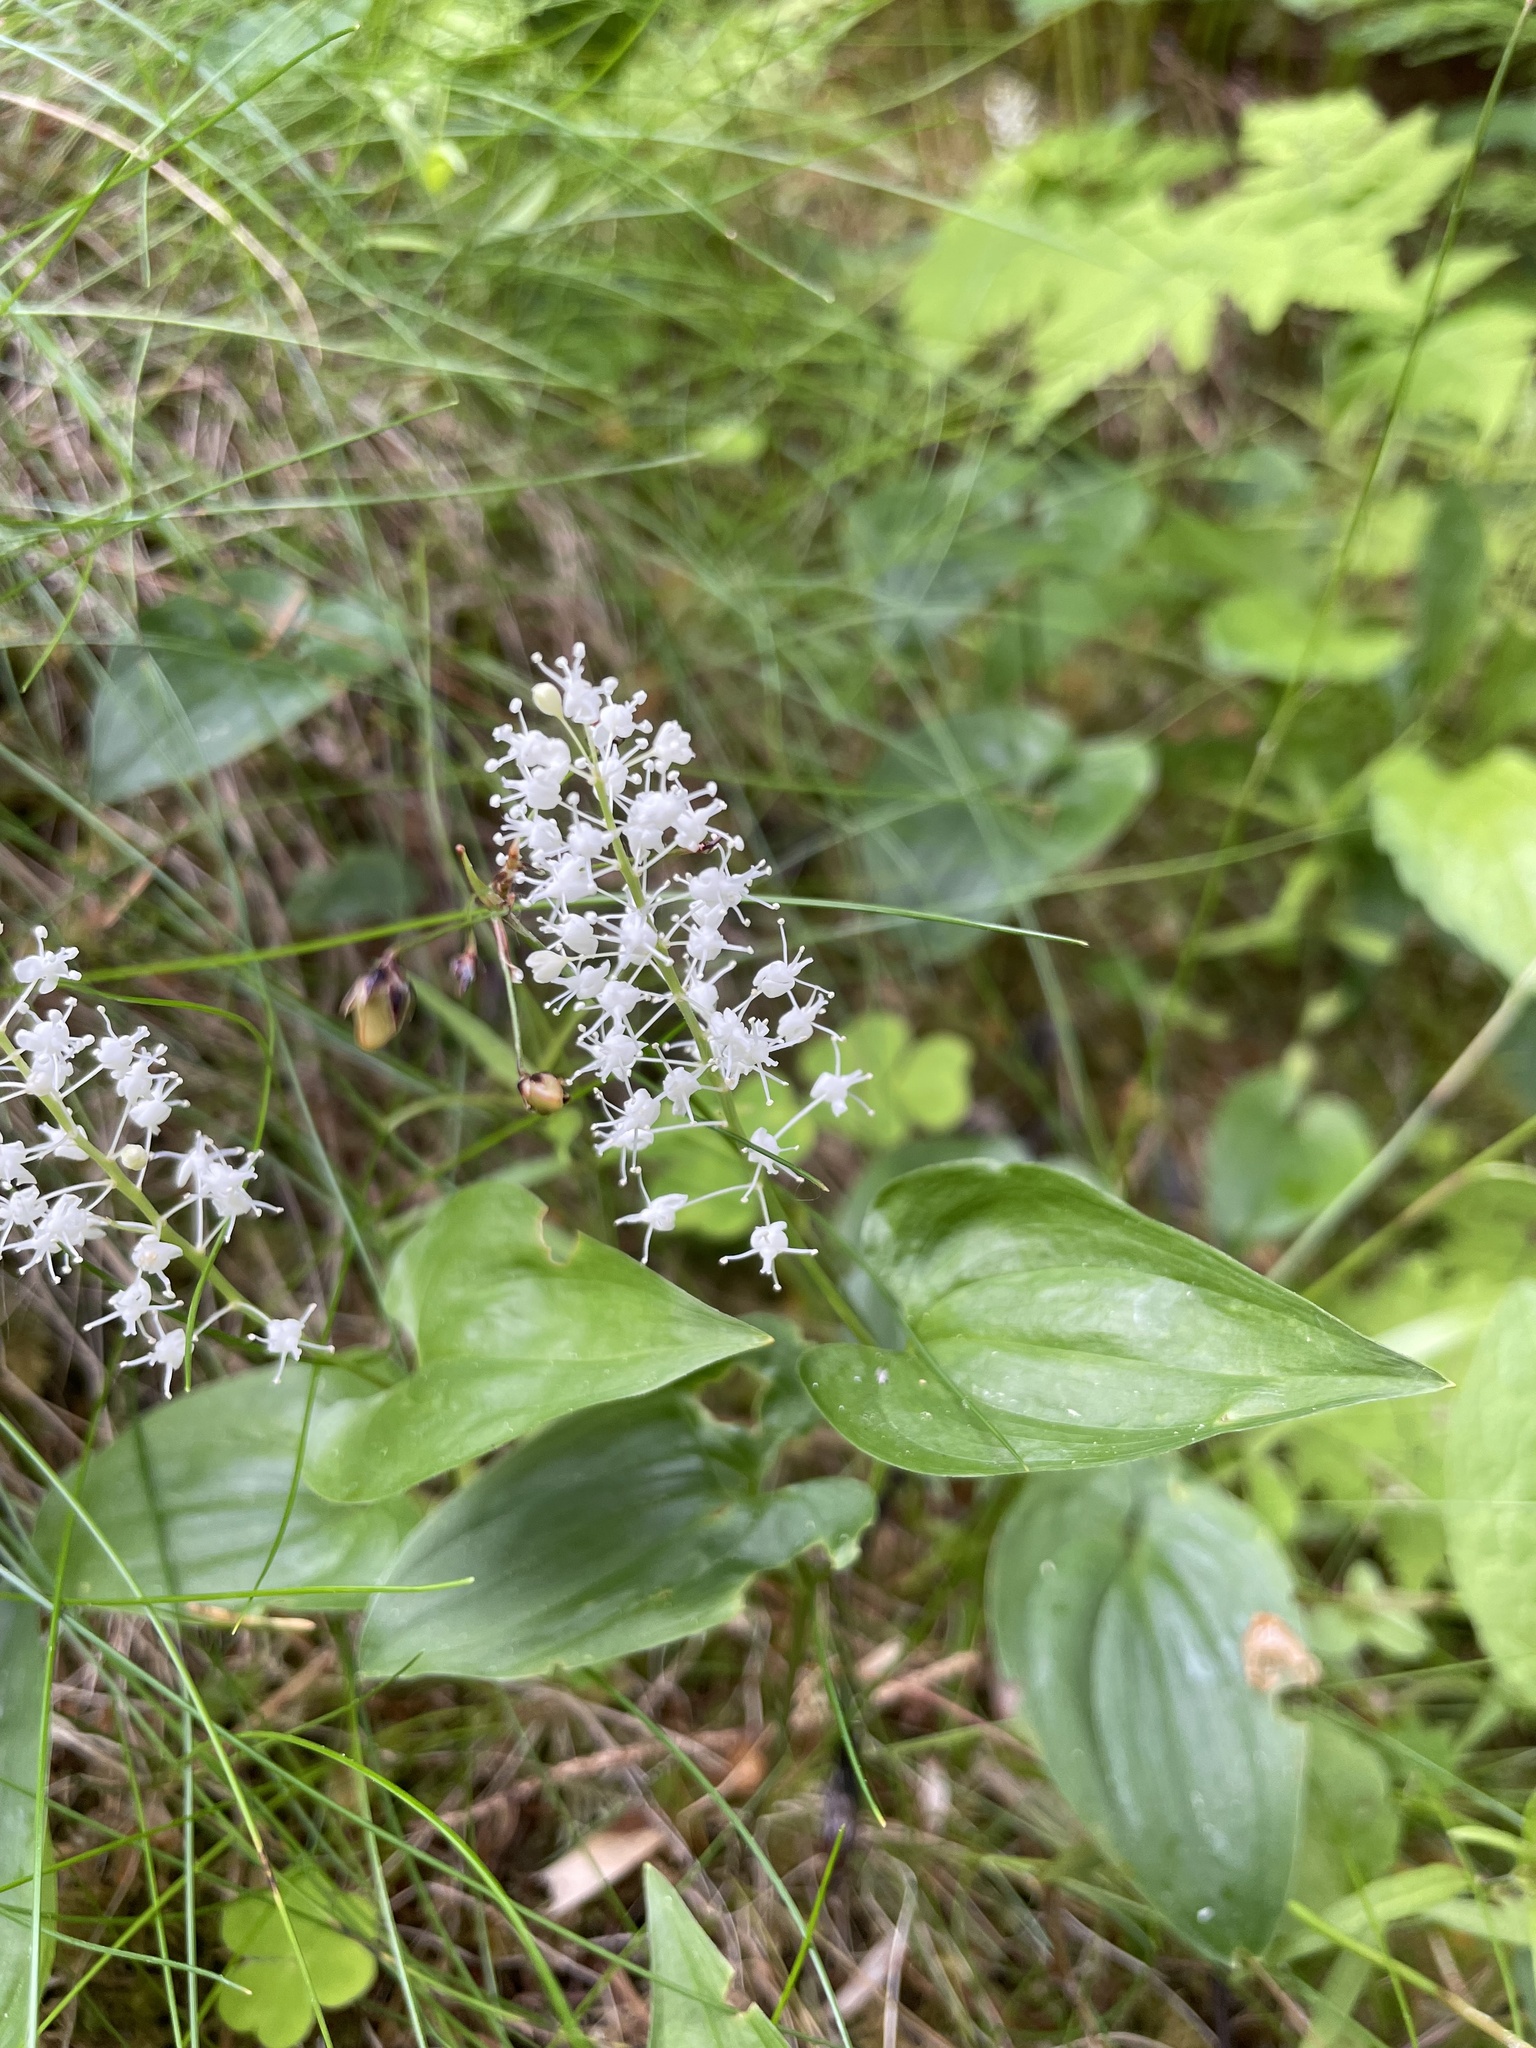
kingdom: Plantae
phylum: Tracheophyta
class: Liliopsida
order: Asparagales
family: Asparagaceae
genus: Maianthemum
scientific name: Maianthemum bifolium
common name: May lily
